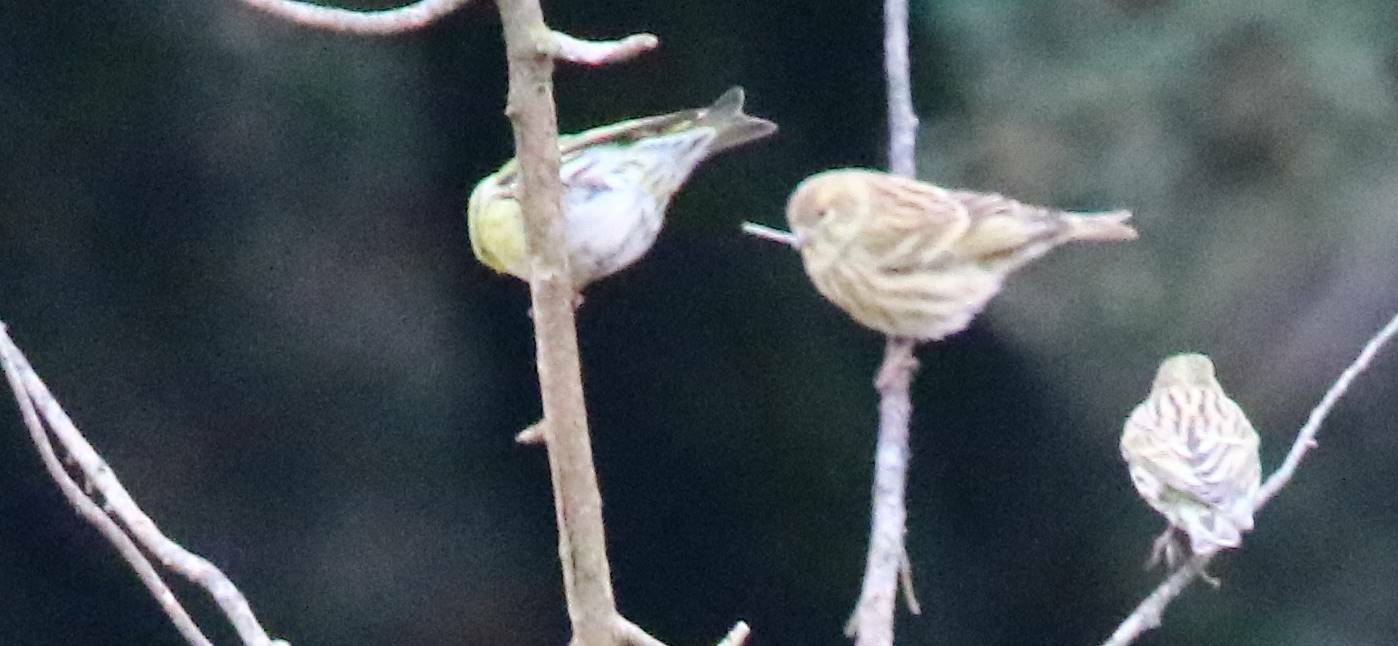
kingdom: Animalia
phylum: Chordata
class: Aves
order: Passeriformes
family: Fringillidae
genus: Serinus
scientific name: Serinus serinus
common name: European serin
